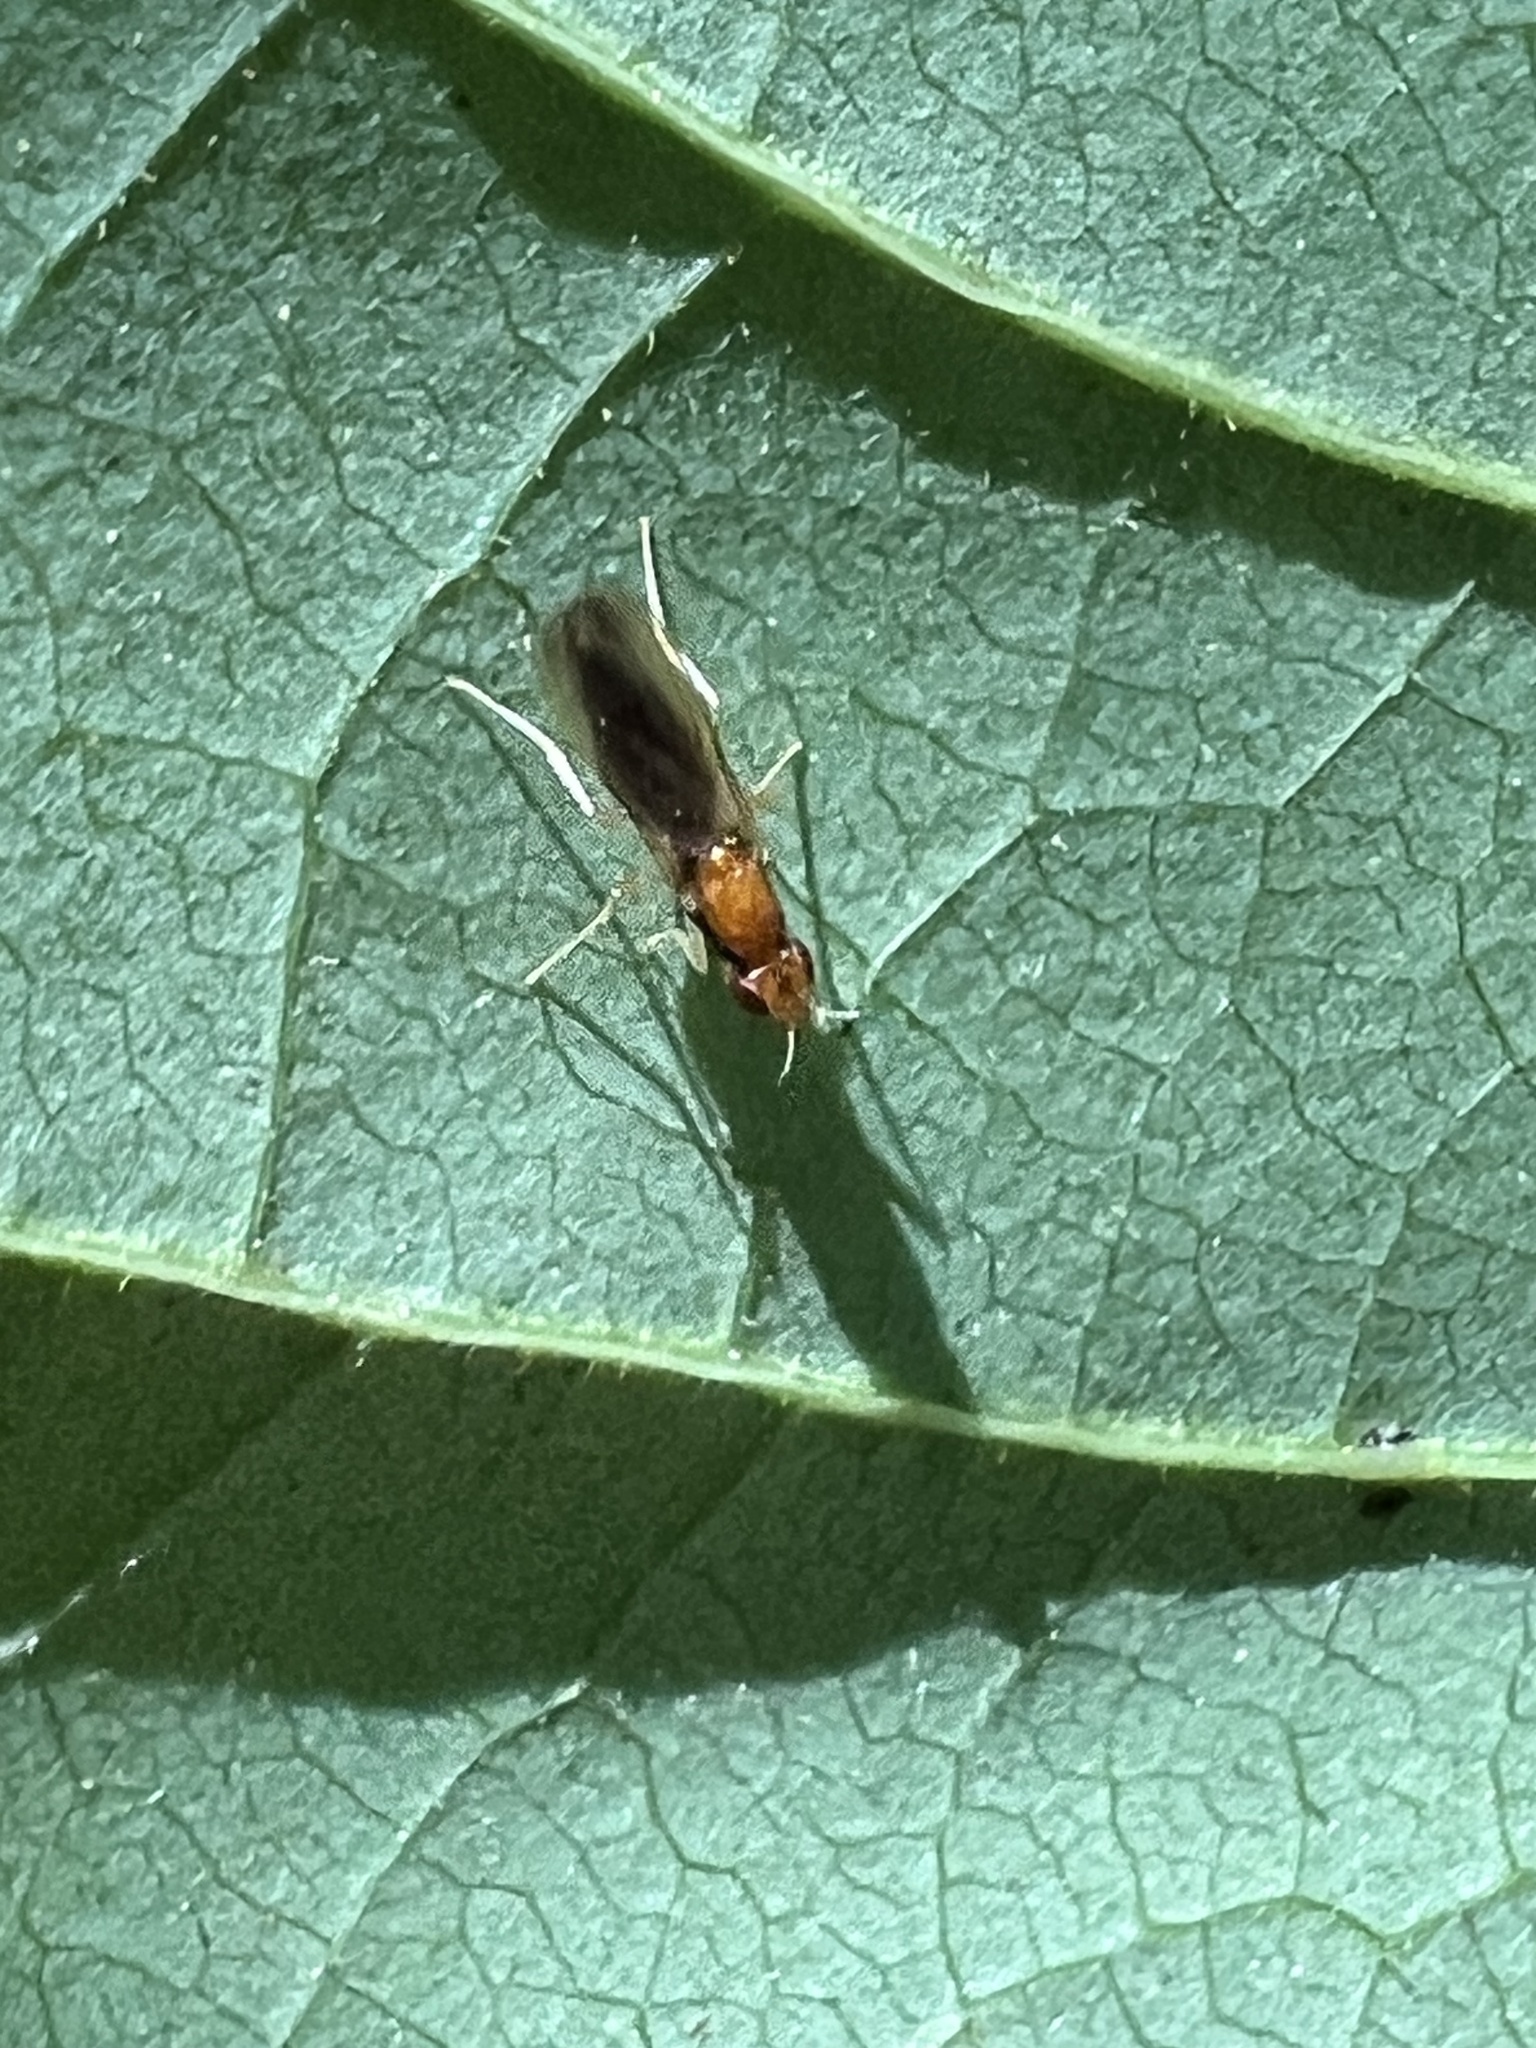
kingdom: Animalia
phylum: Arthropoda
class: Insecta
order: Diptera
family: Psilidae
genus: Psila
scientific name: Psila lateralis
